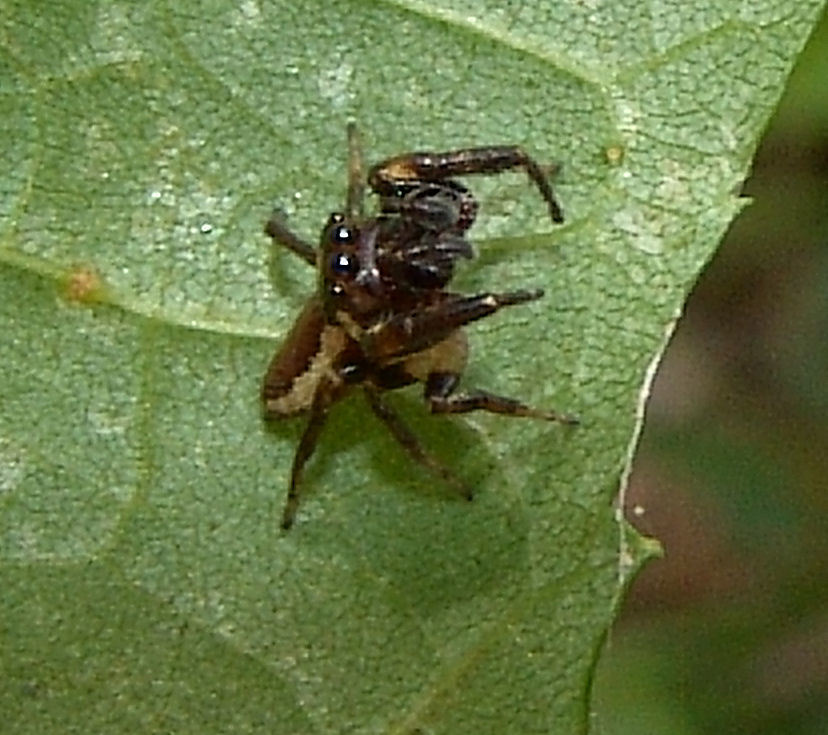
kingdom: Animalia
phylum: Arthropoda
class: Arachnida
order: Araneae
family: Salticidae
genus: Eris
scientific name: Eris militaris
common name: Bronze jumper
